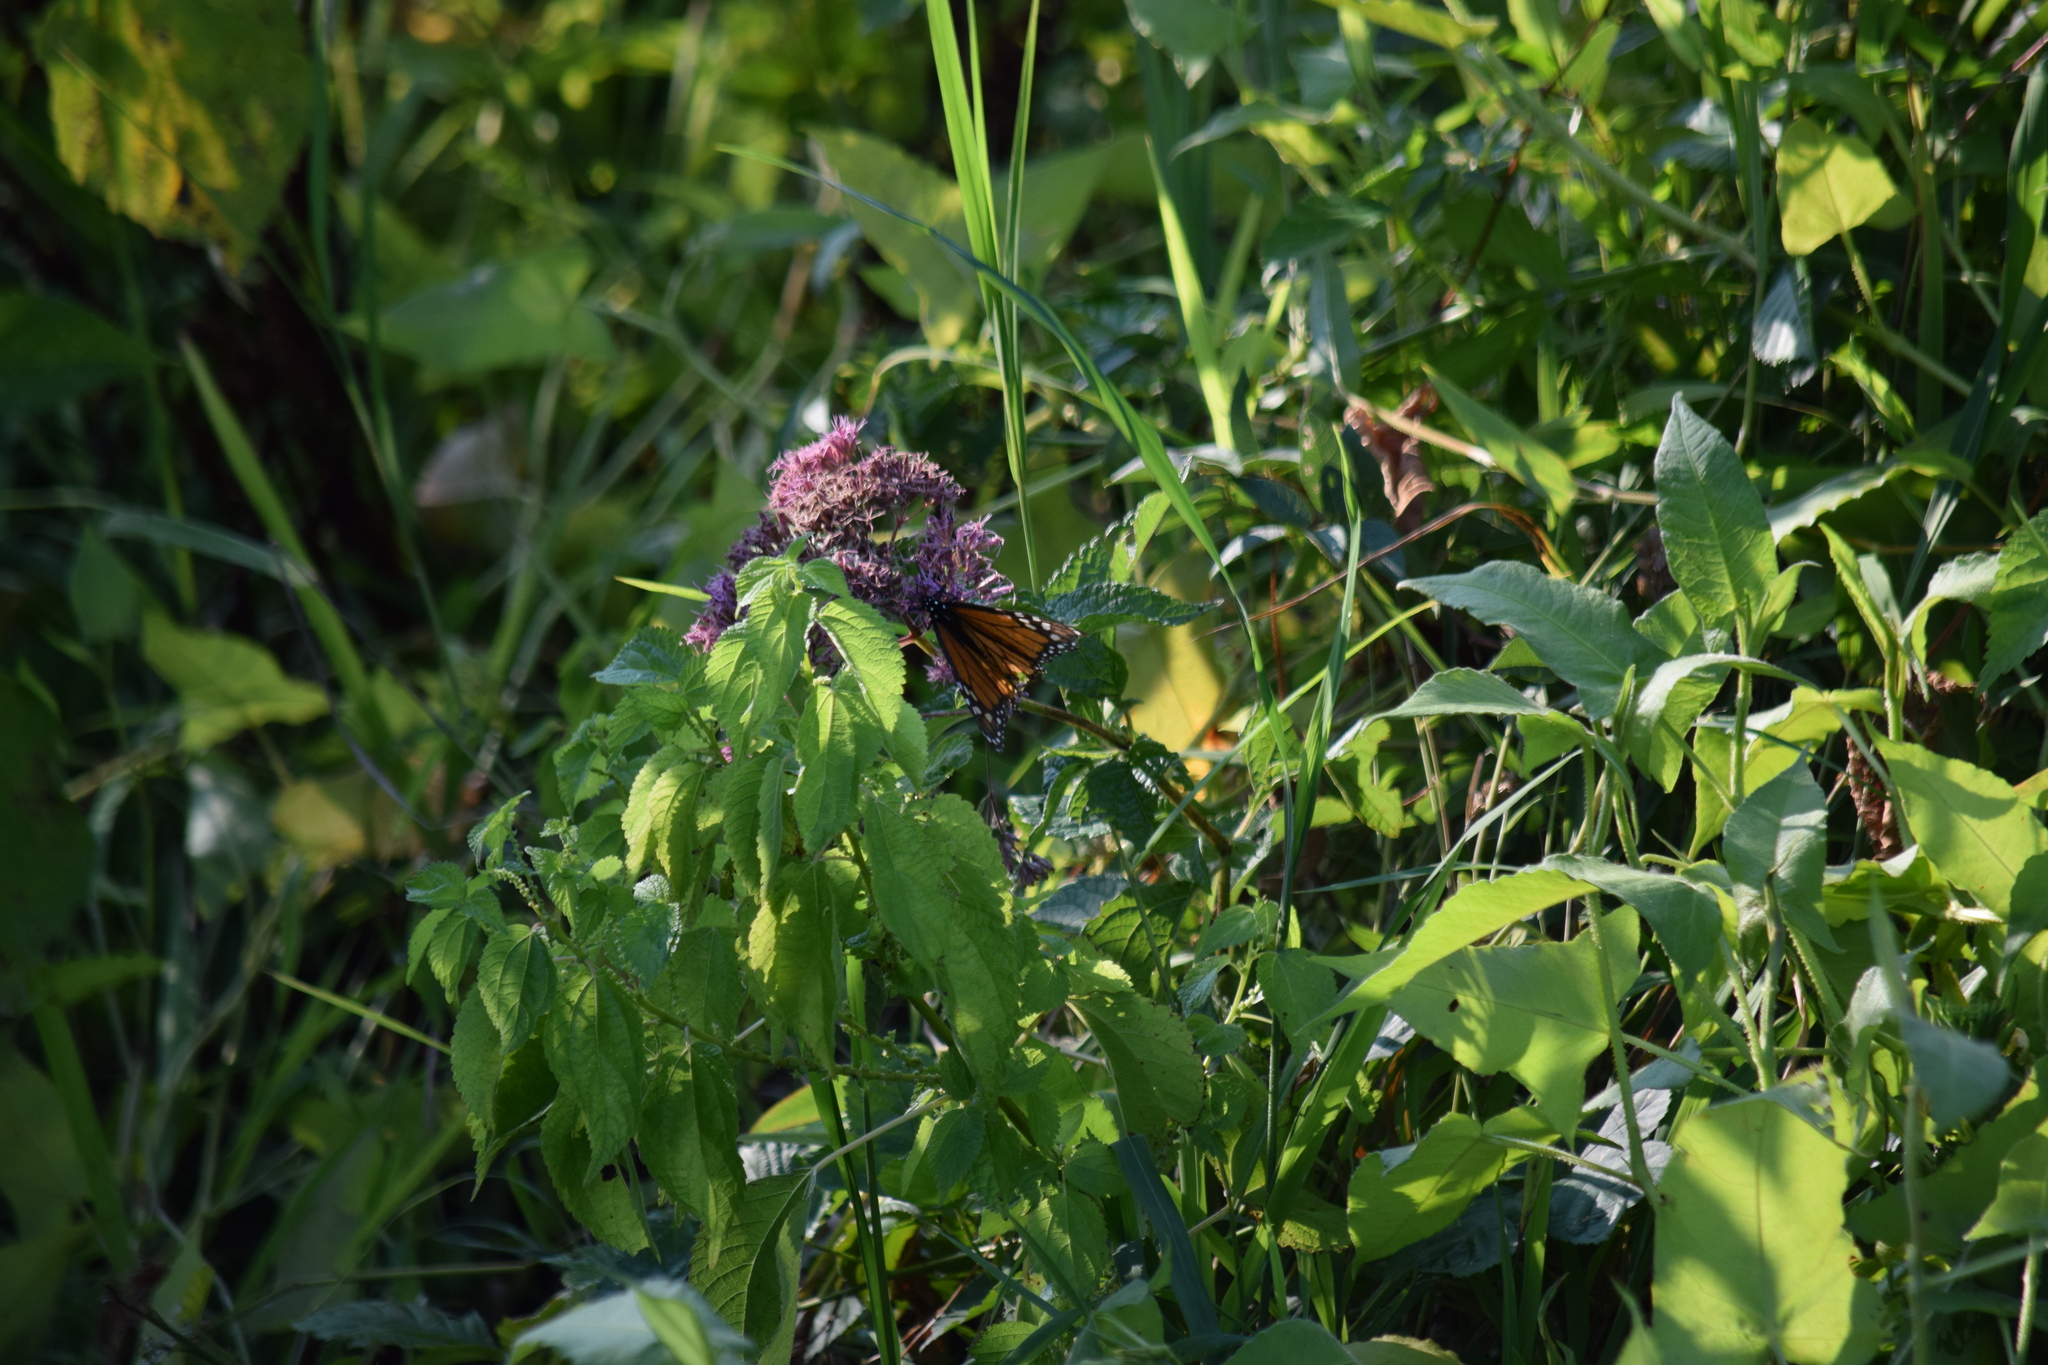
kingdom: Animalia
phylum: Arthropoda
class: Insecta
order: Lepidoptera
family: Nymphalidae
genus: Danaus
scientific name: Danaus plexippus
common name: Monarch
